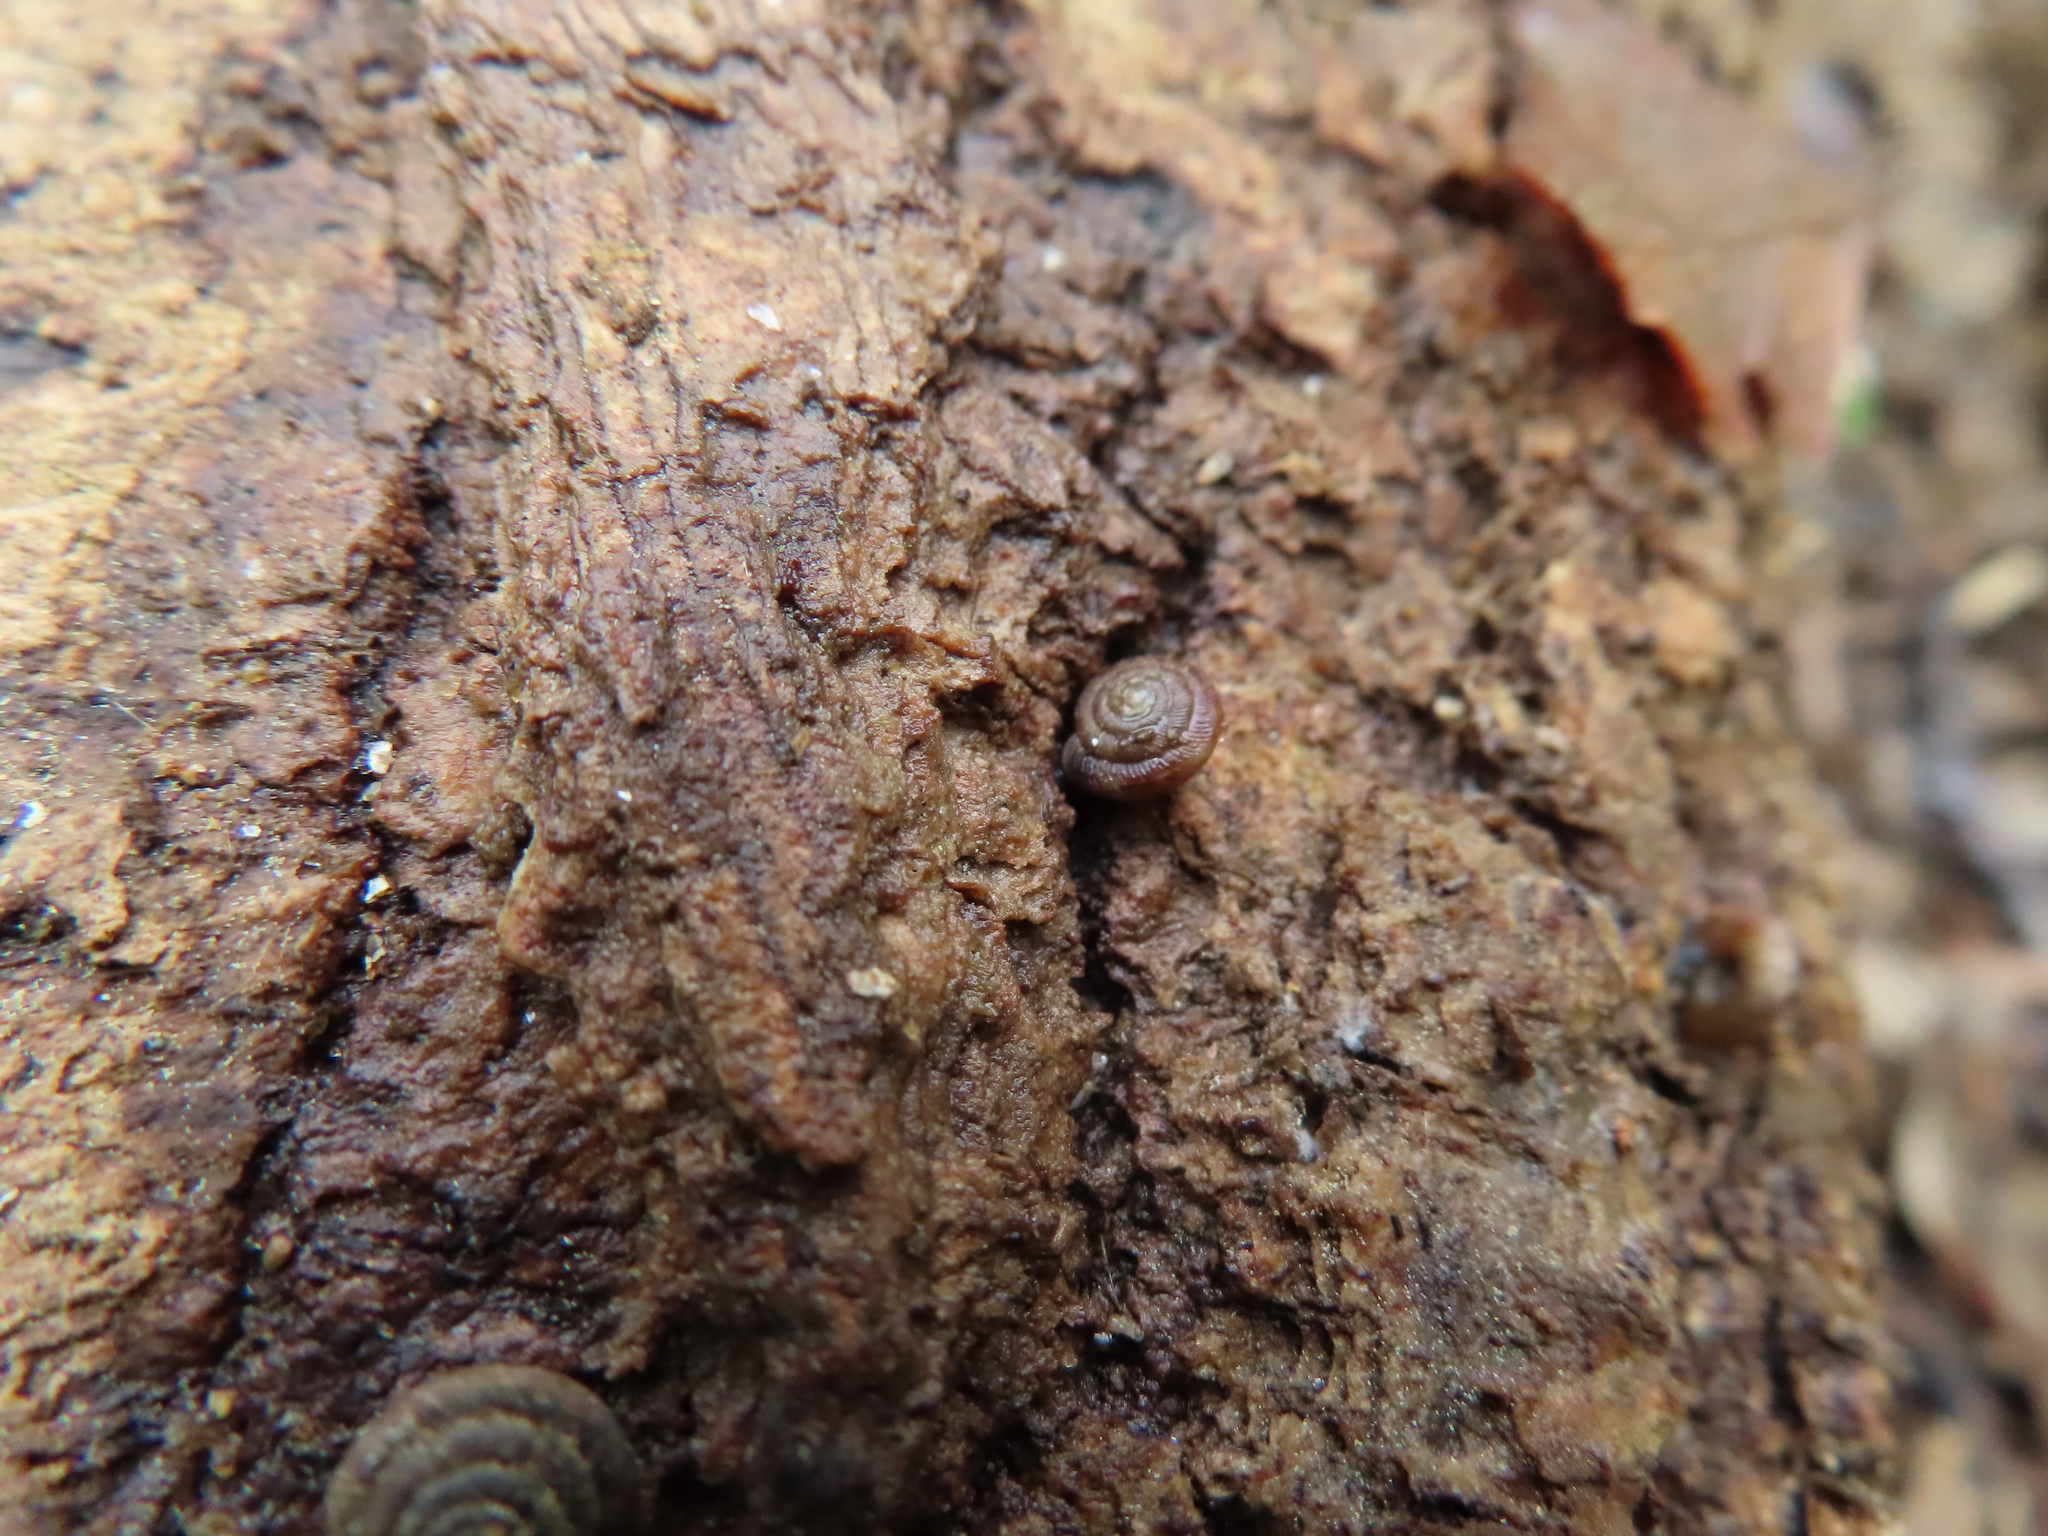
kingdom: Animalia
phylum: Mollusca
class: Gastropoda
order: Stylommatophora
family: Discidae
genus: Discus
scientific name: Discus rotundatus
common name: Rounded snail
